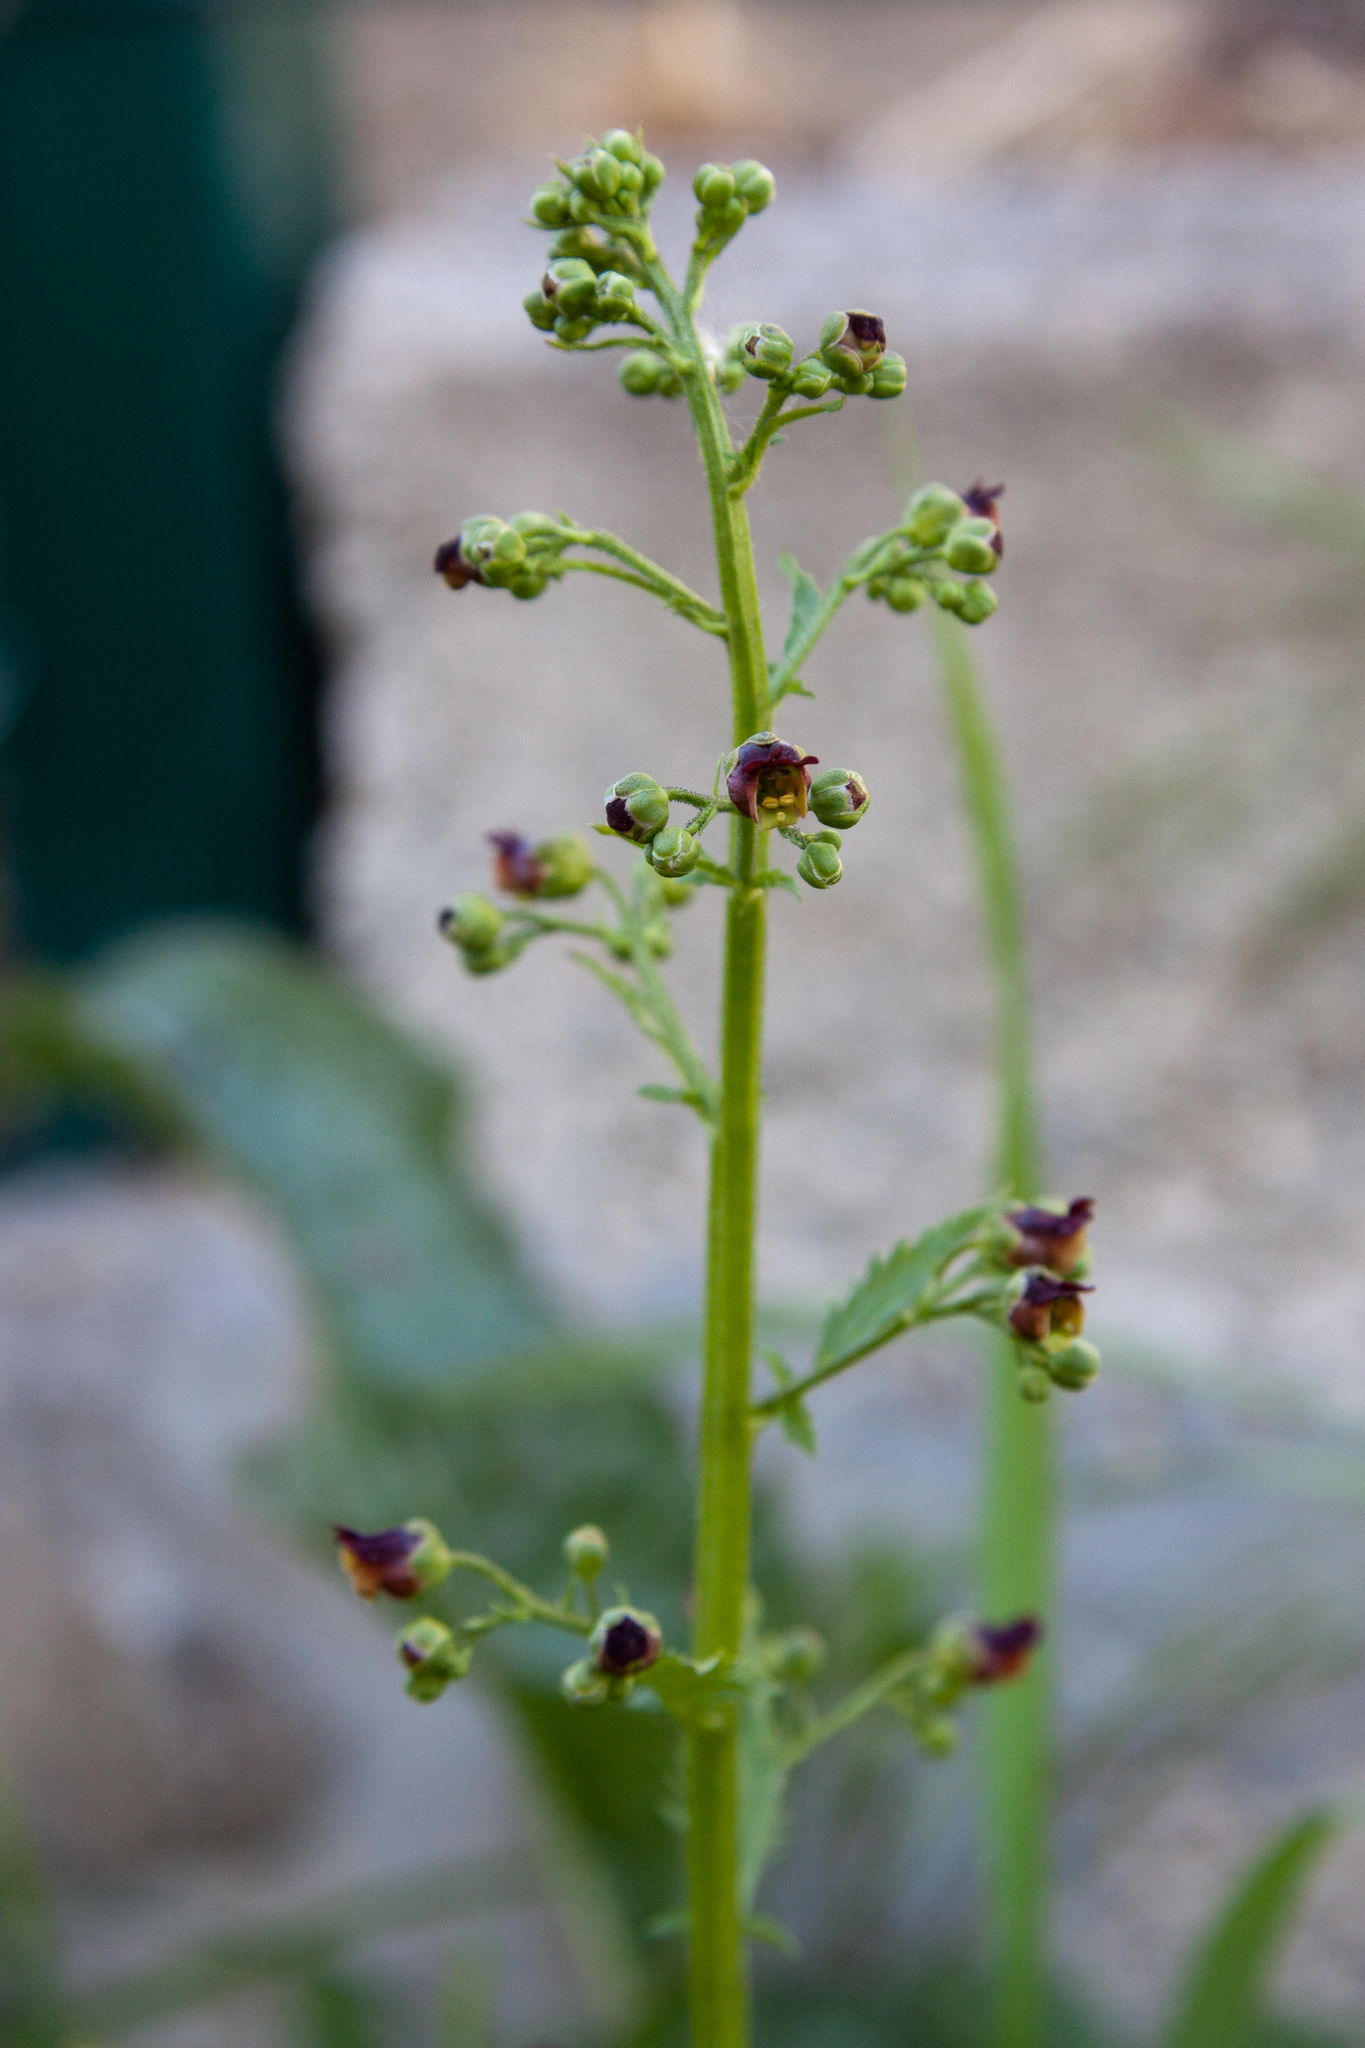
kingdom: Plantae
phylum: Tracheophyta
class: Magnoliopsida
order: Lamiales
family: Scrophulariaceae
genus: Scrophularia
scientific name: Scrophularia scopolii
